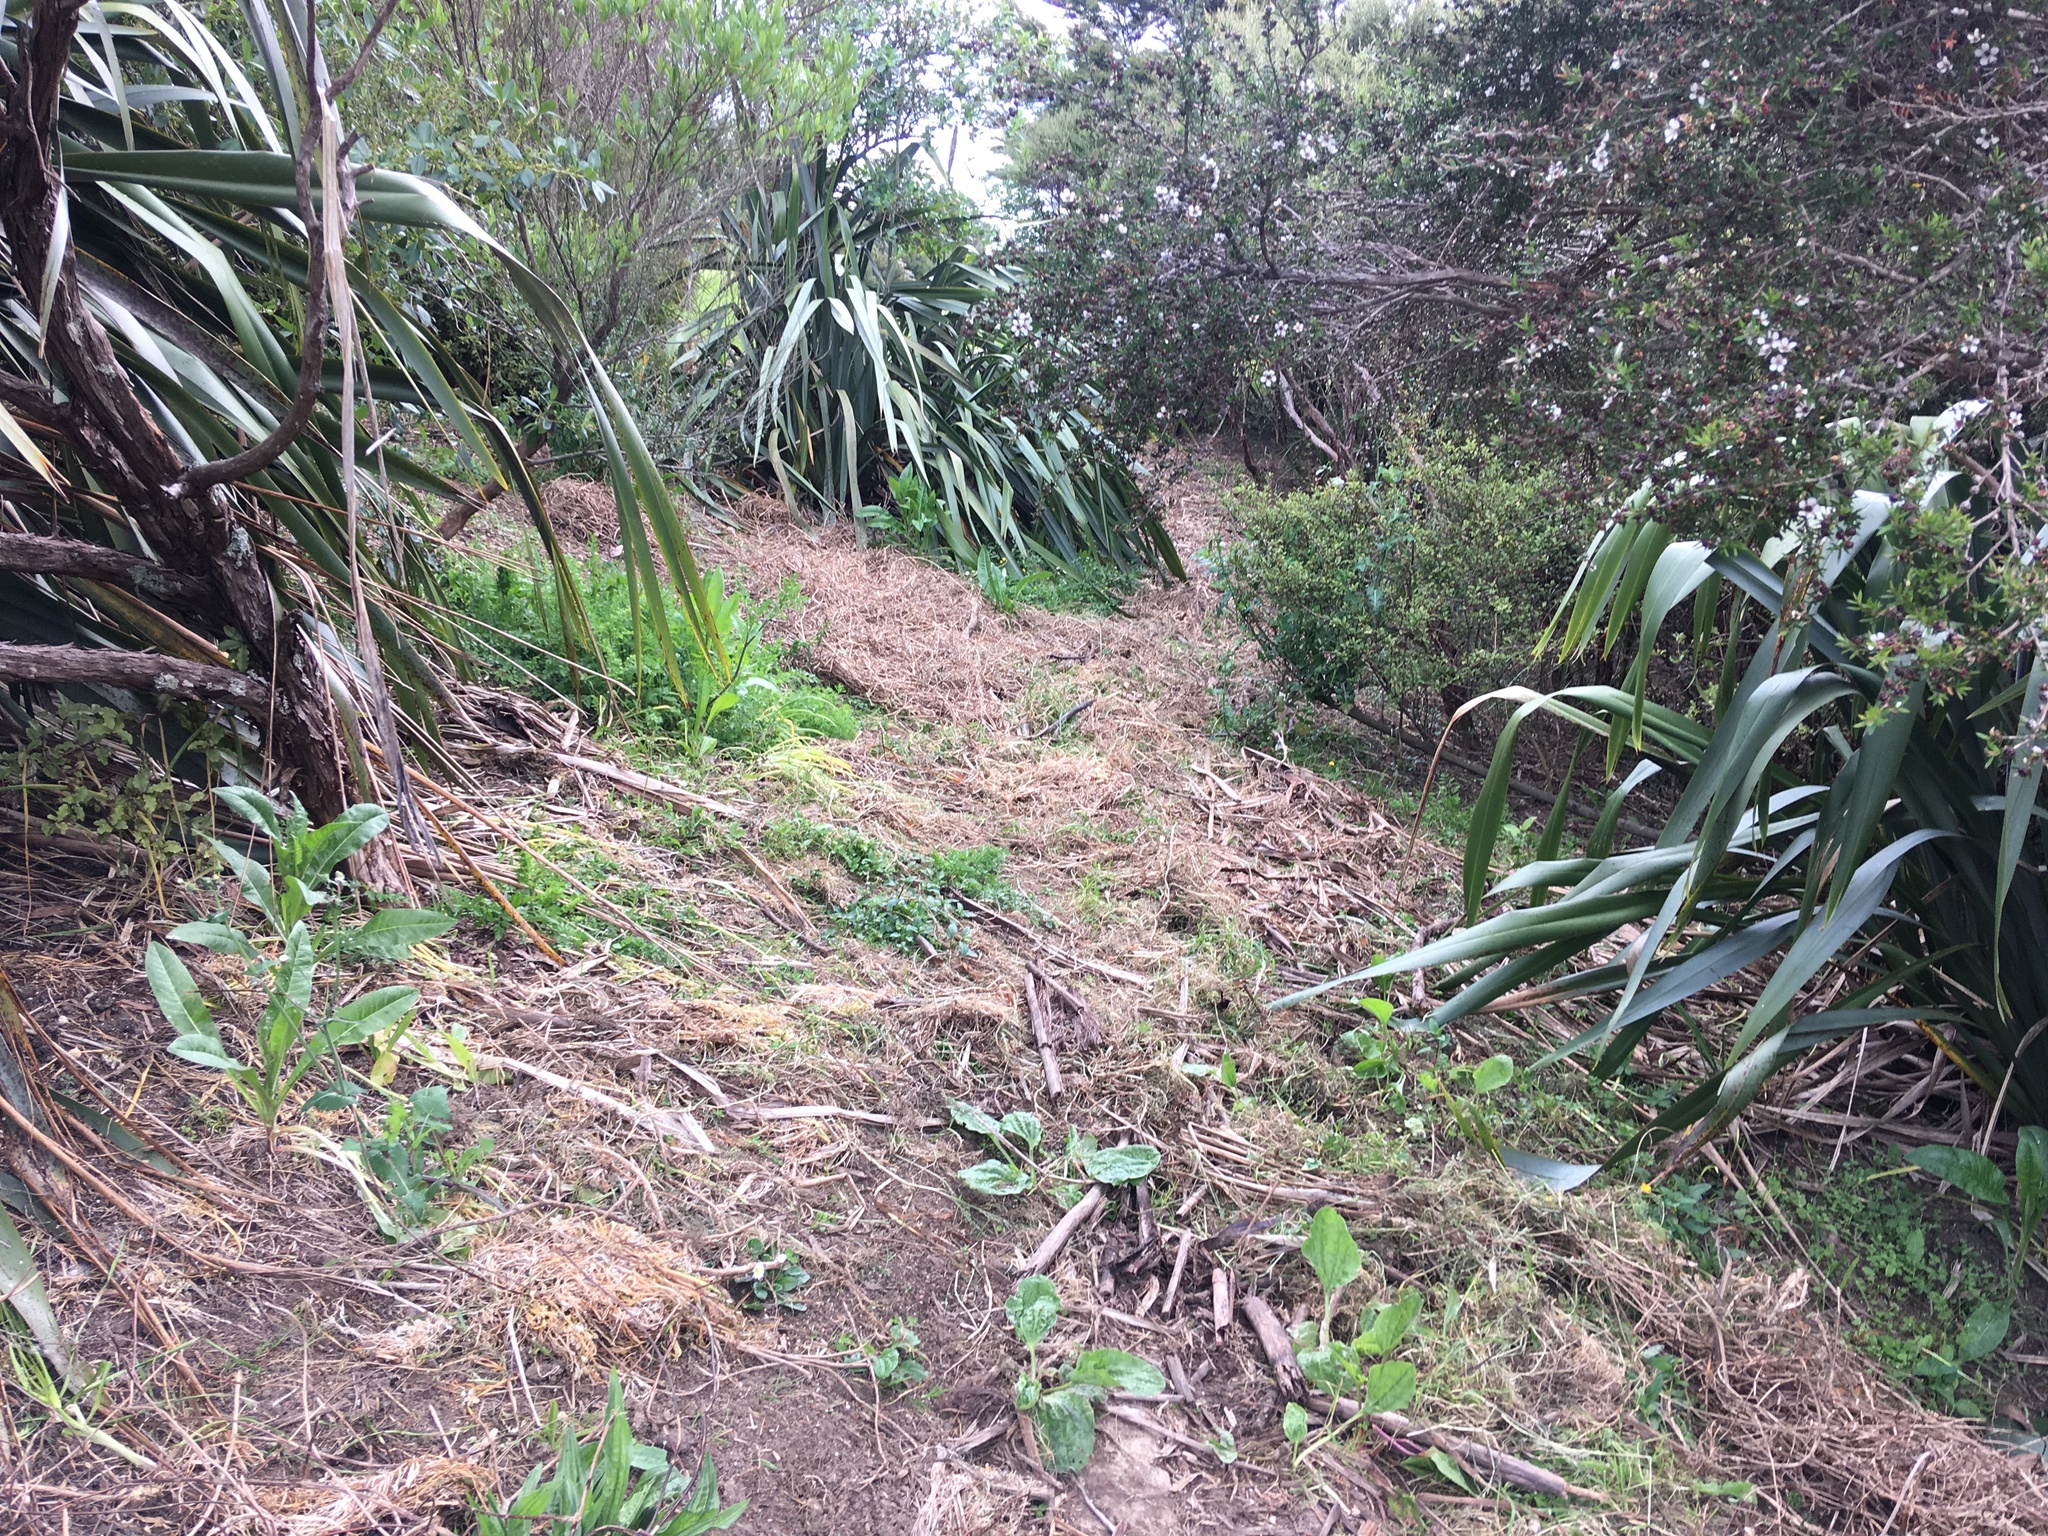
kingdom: Plantae
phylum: Tracheophyta
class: Magnoliopsida
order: Lamiales
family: Plantaginaceae
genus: Plantago
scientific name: Plantago major
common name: Common plantain
